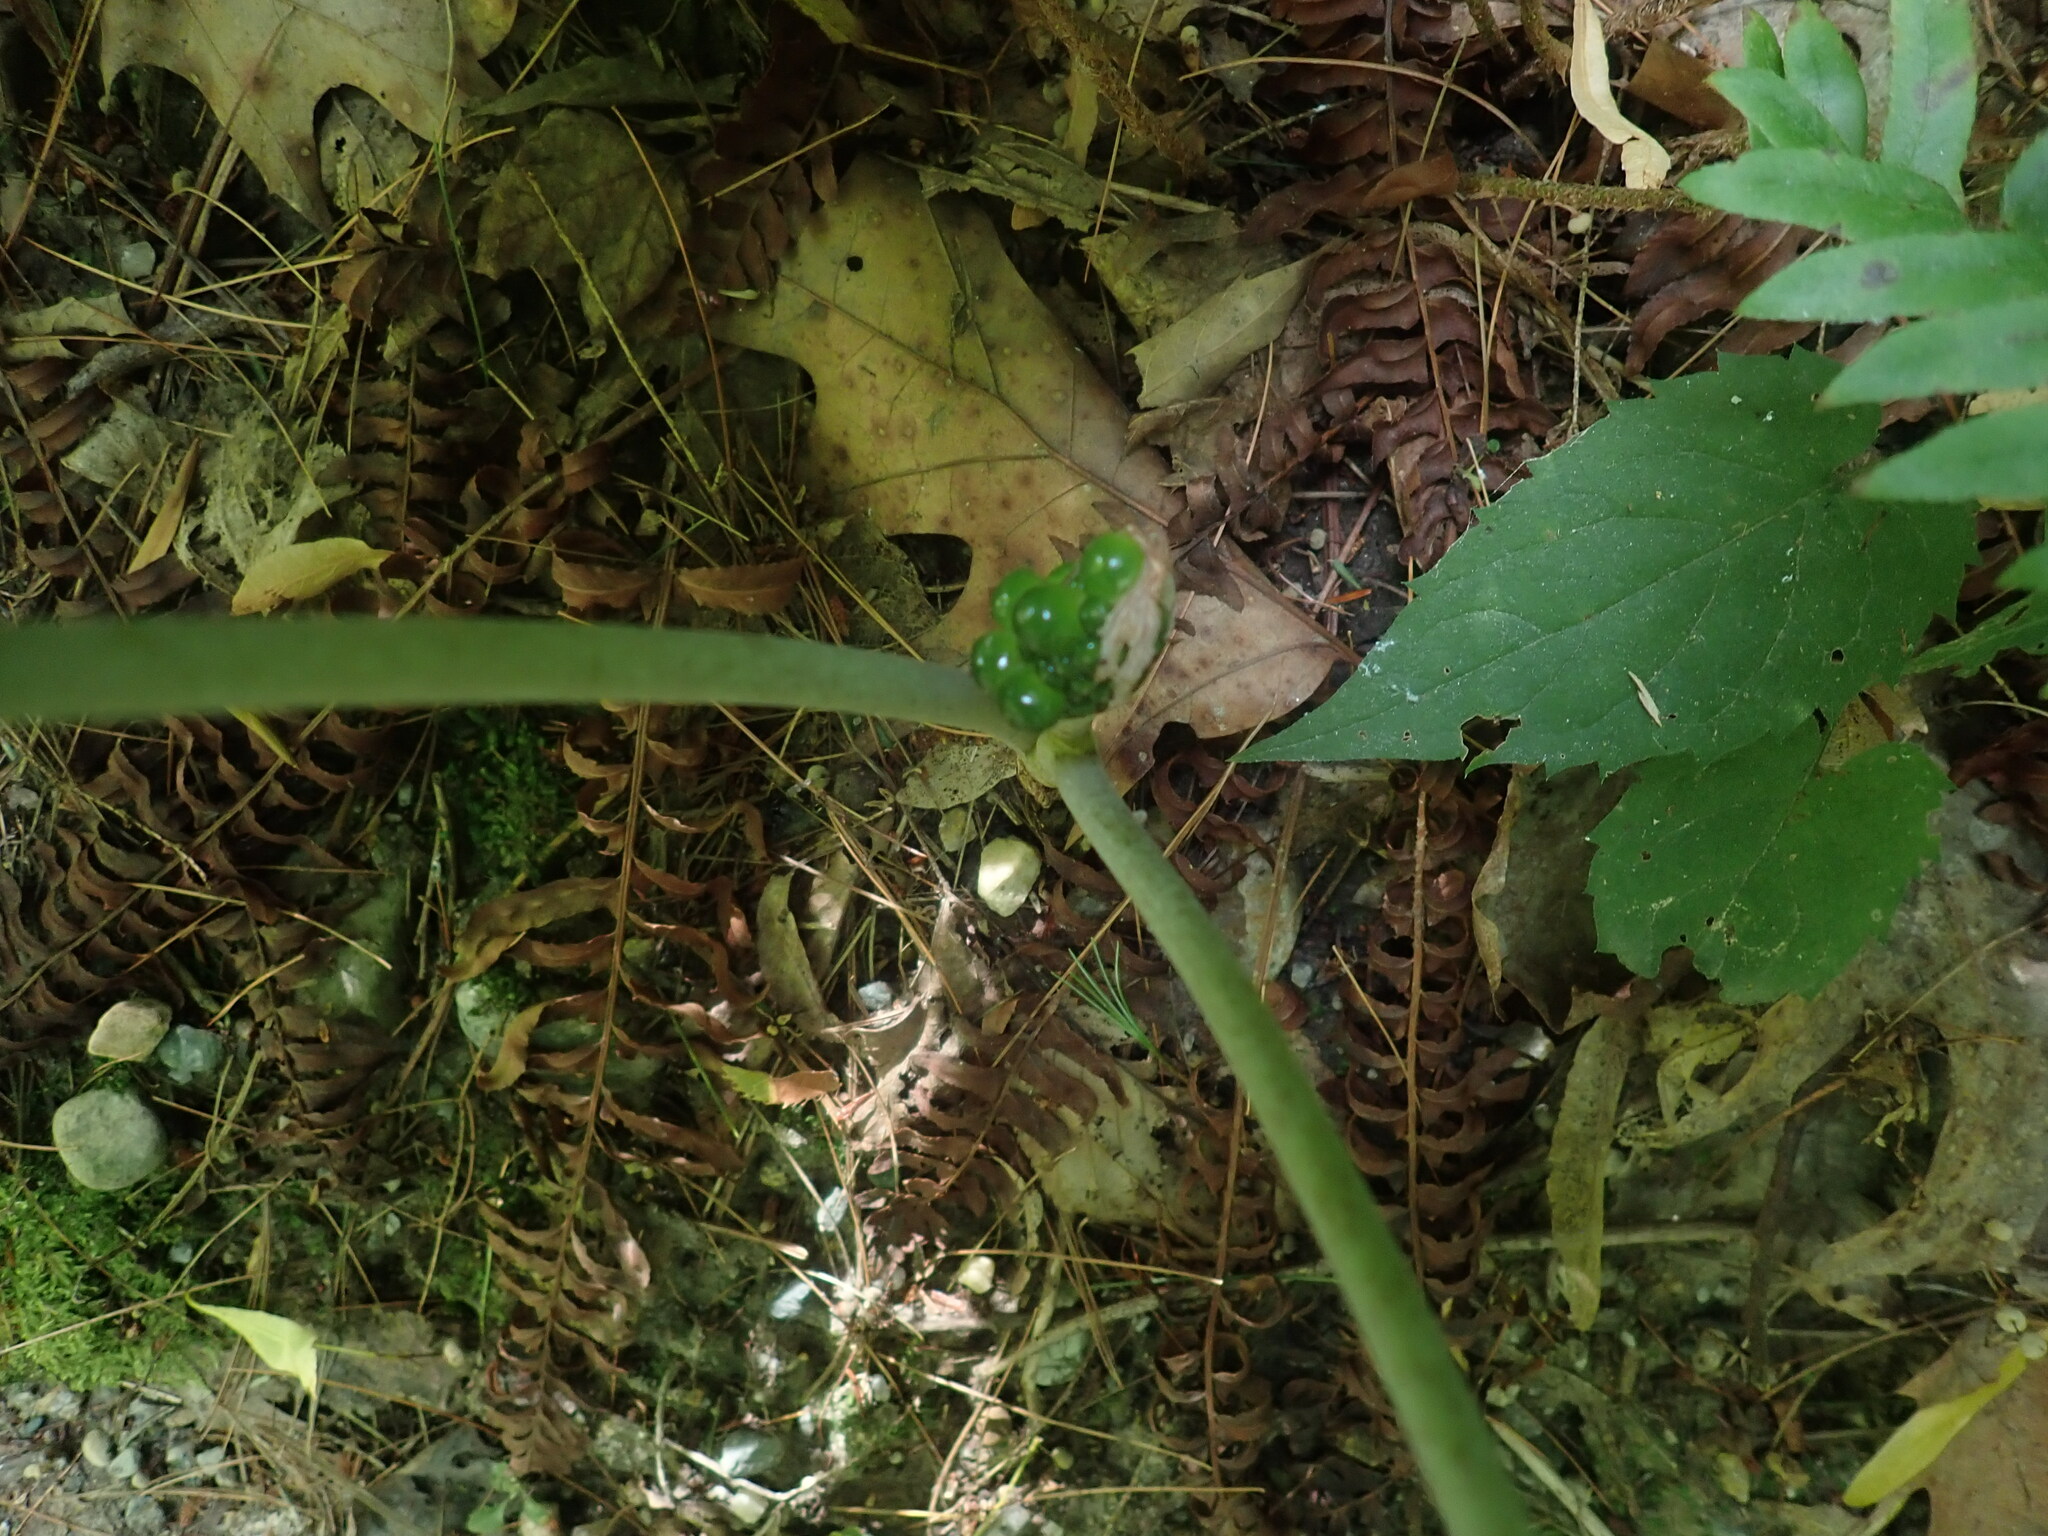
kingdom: Plantae
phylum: Tracheophyta
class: Liliopsida
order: Alismatales
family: Araceae
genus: Arisaema
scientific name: Arisaema triphyllum
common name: Jack-in-the-pulpit
